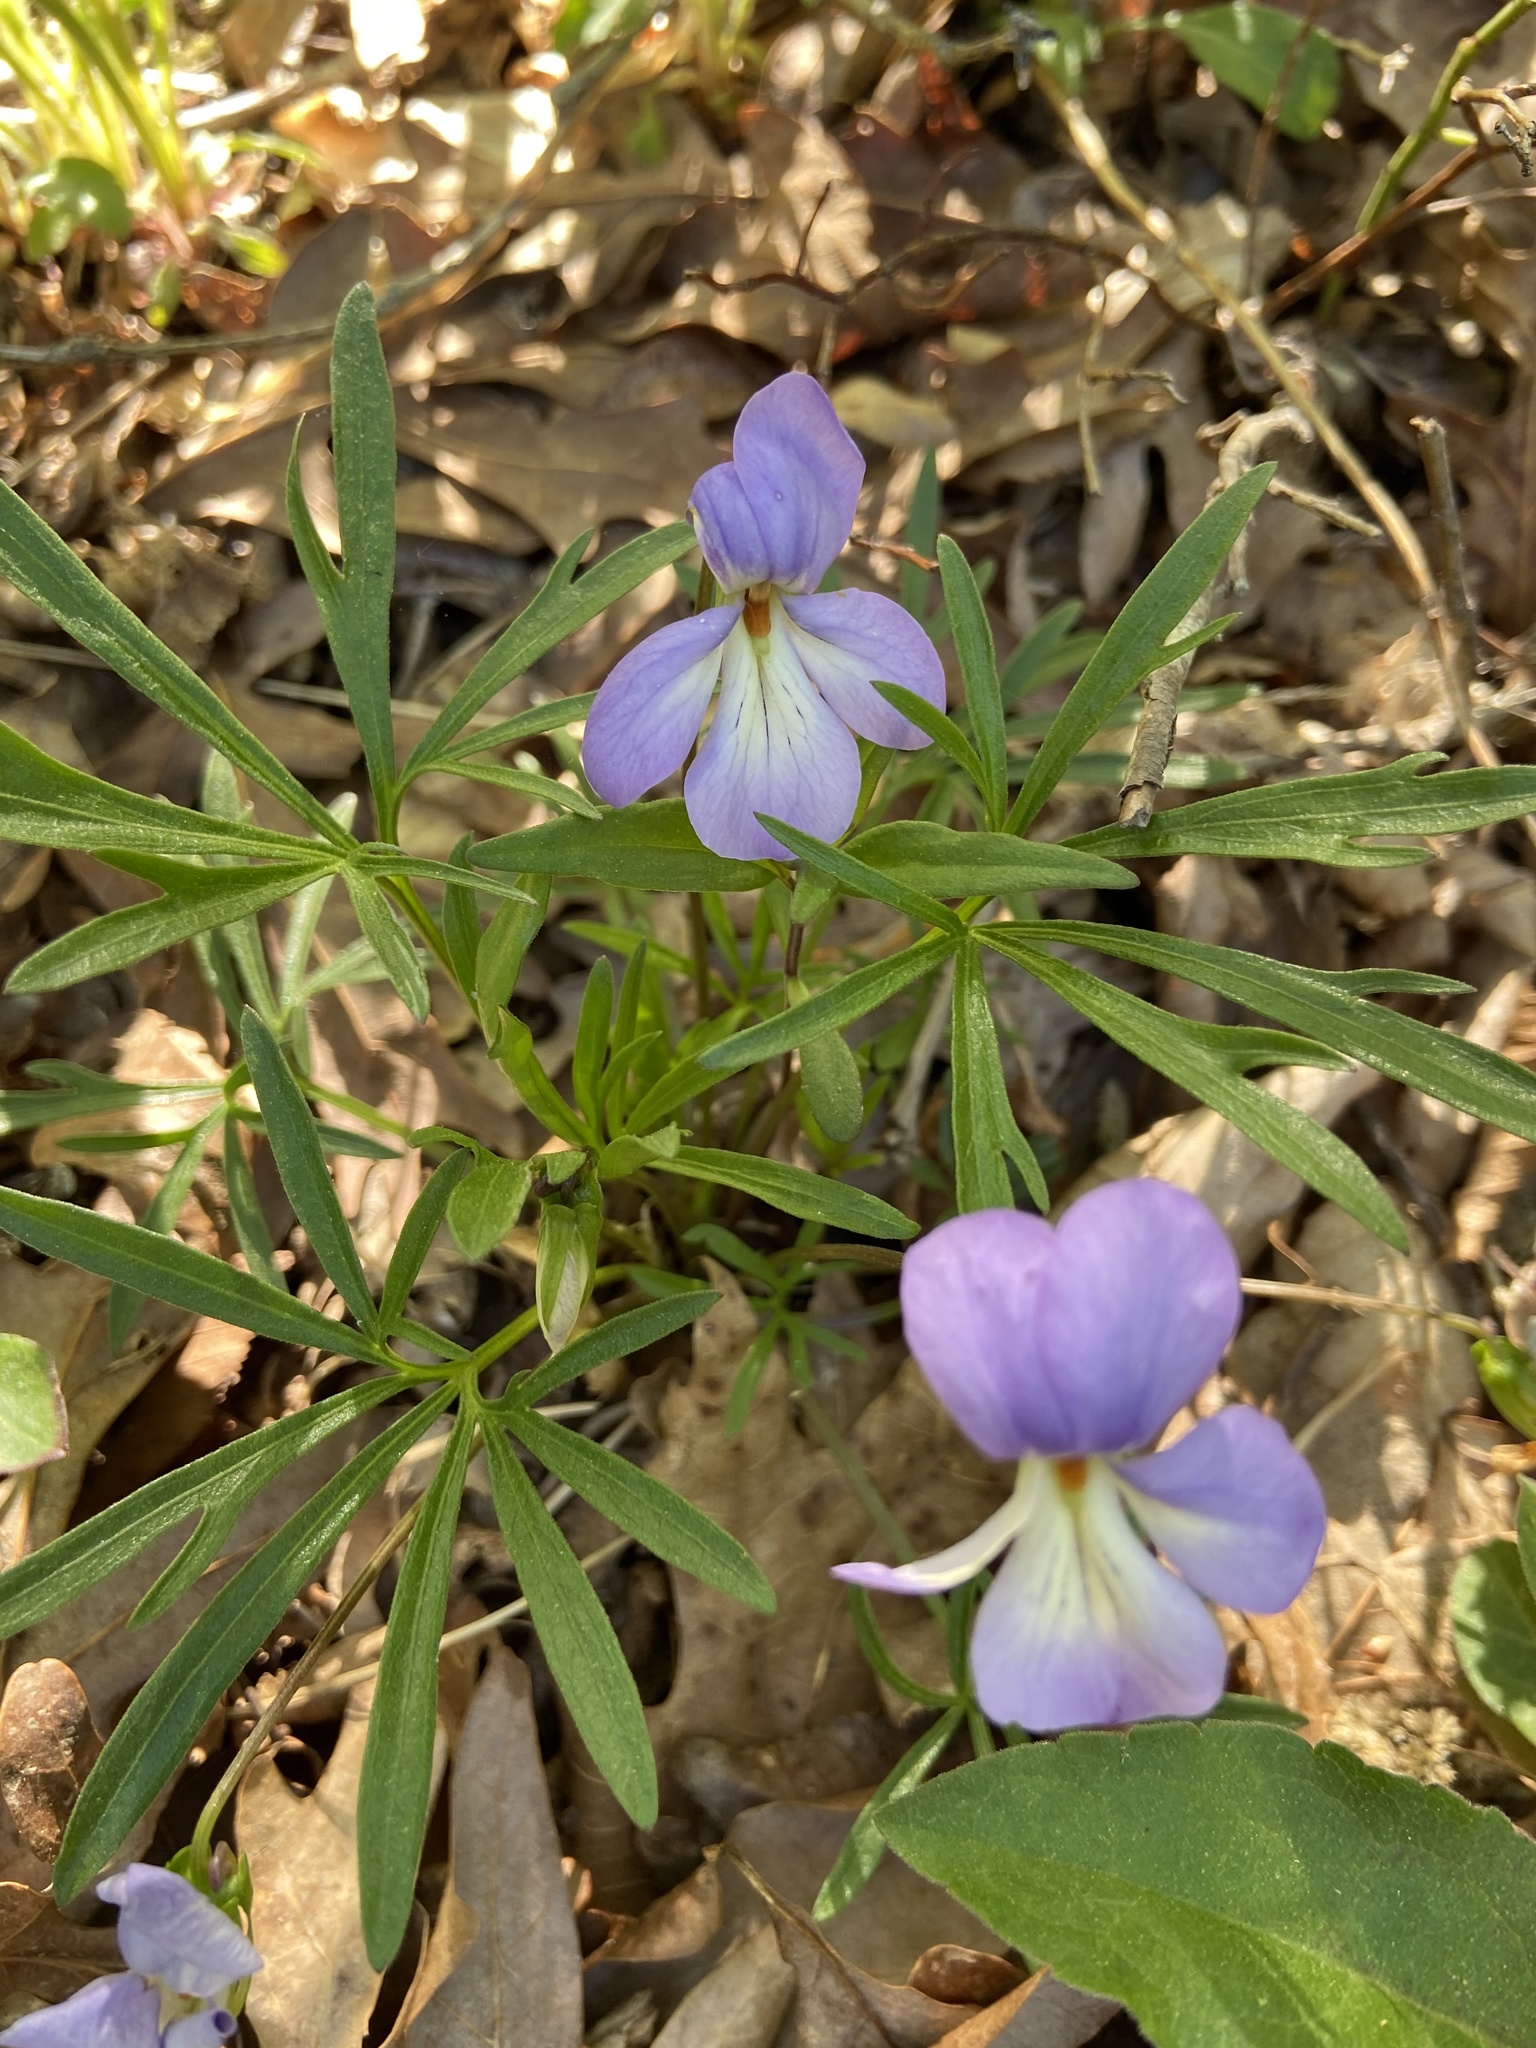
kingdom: Plantae
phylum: Tracheophyta
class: Magnoliopsida
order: Malpighiales
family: Violaceae
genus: Viola
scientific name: Viola pedata
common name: Pansy violet
